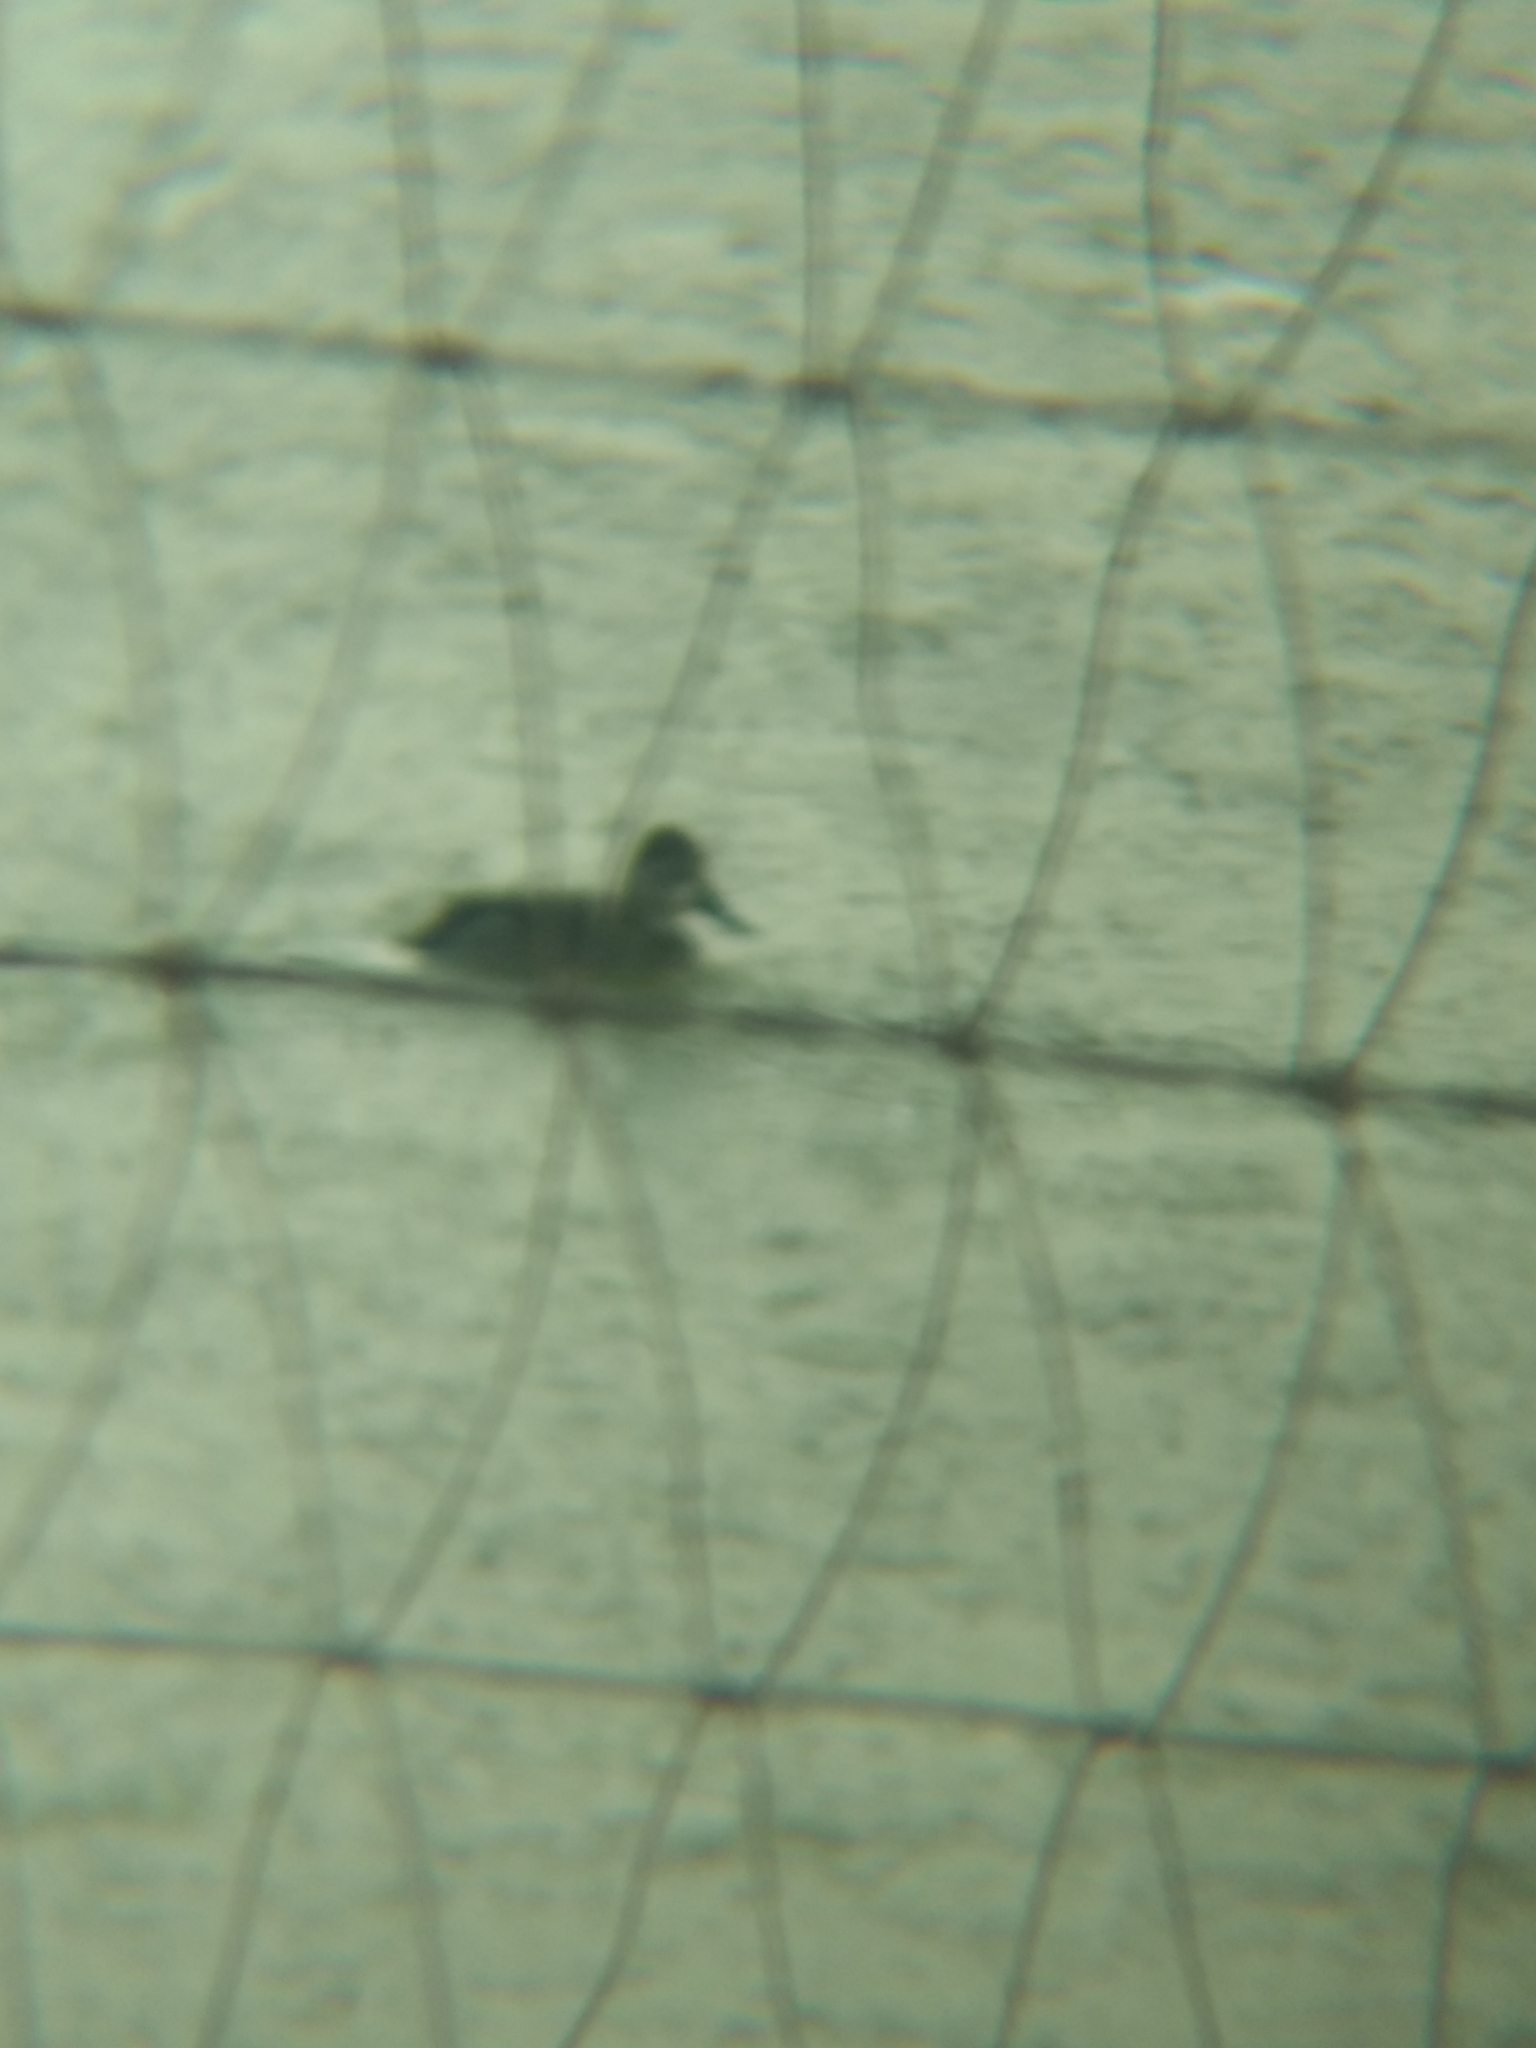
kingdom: Animalia
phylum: Chordata
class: Aves
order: Anseriformes
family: Anatidae
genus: Aythya
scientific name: Aythya collaris
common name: Ring-necked duck
